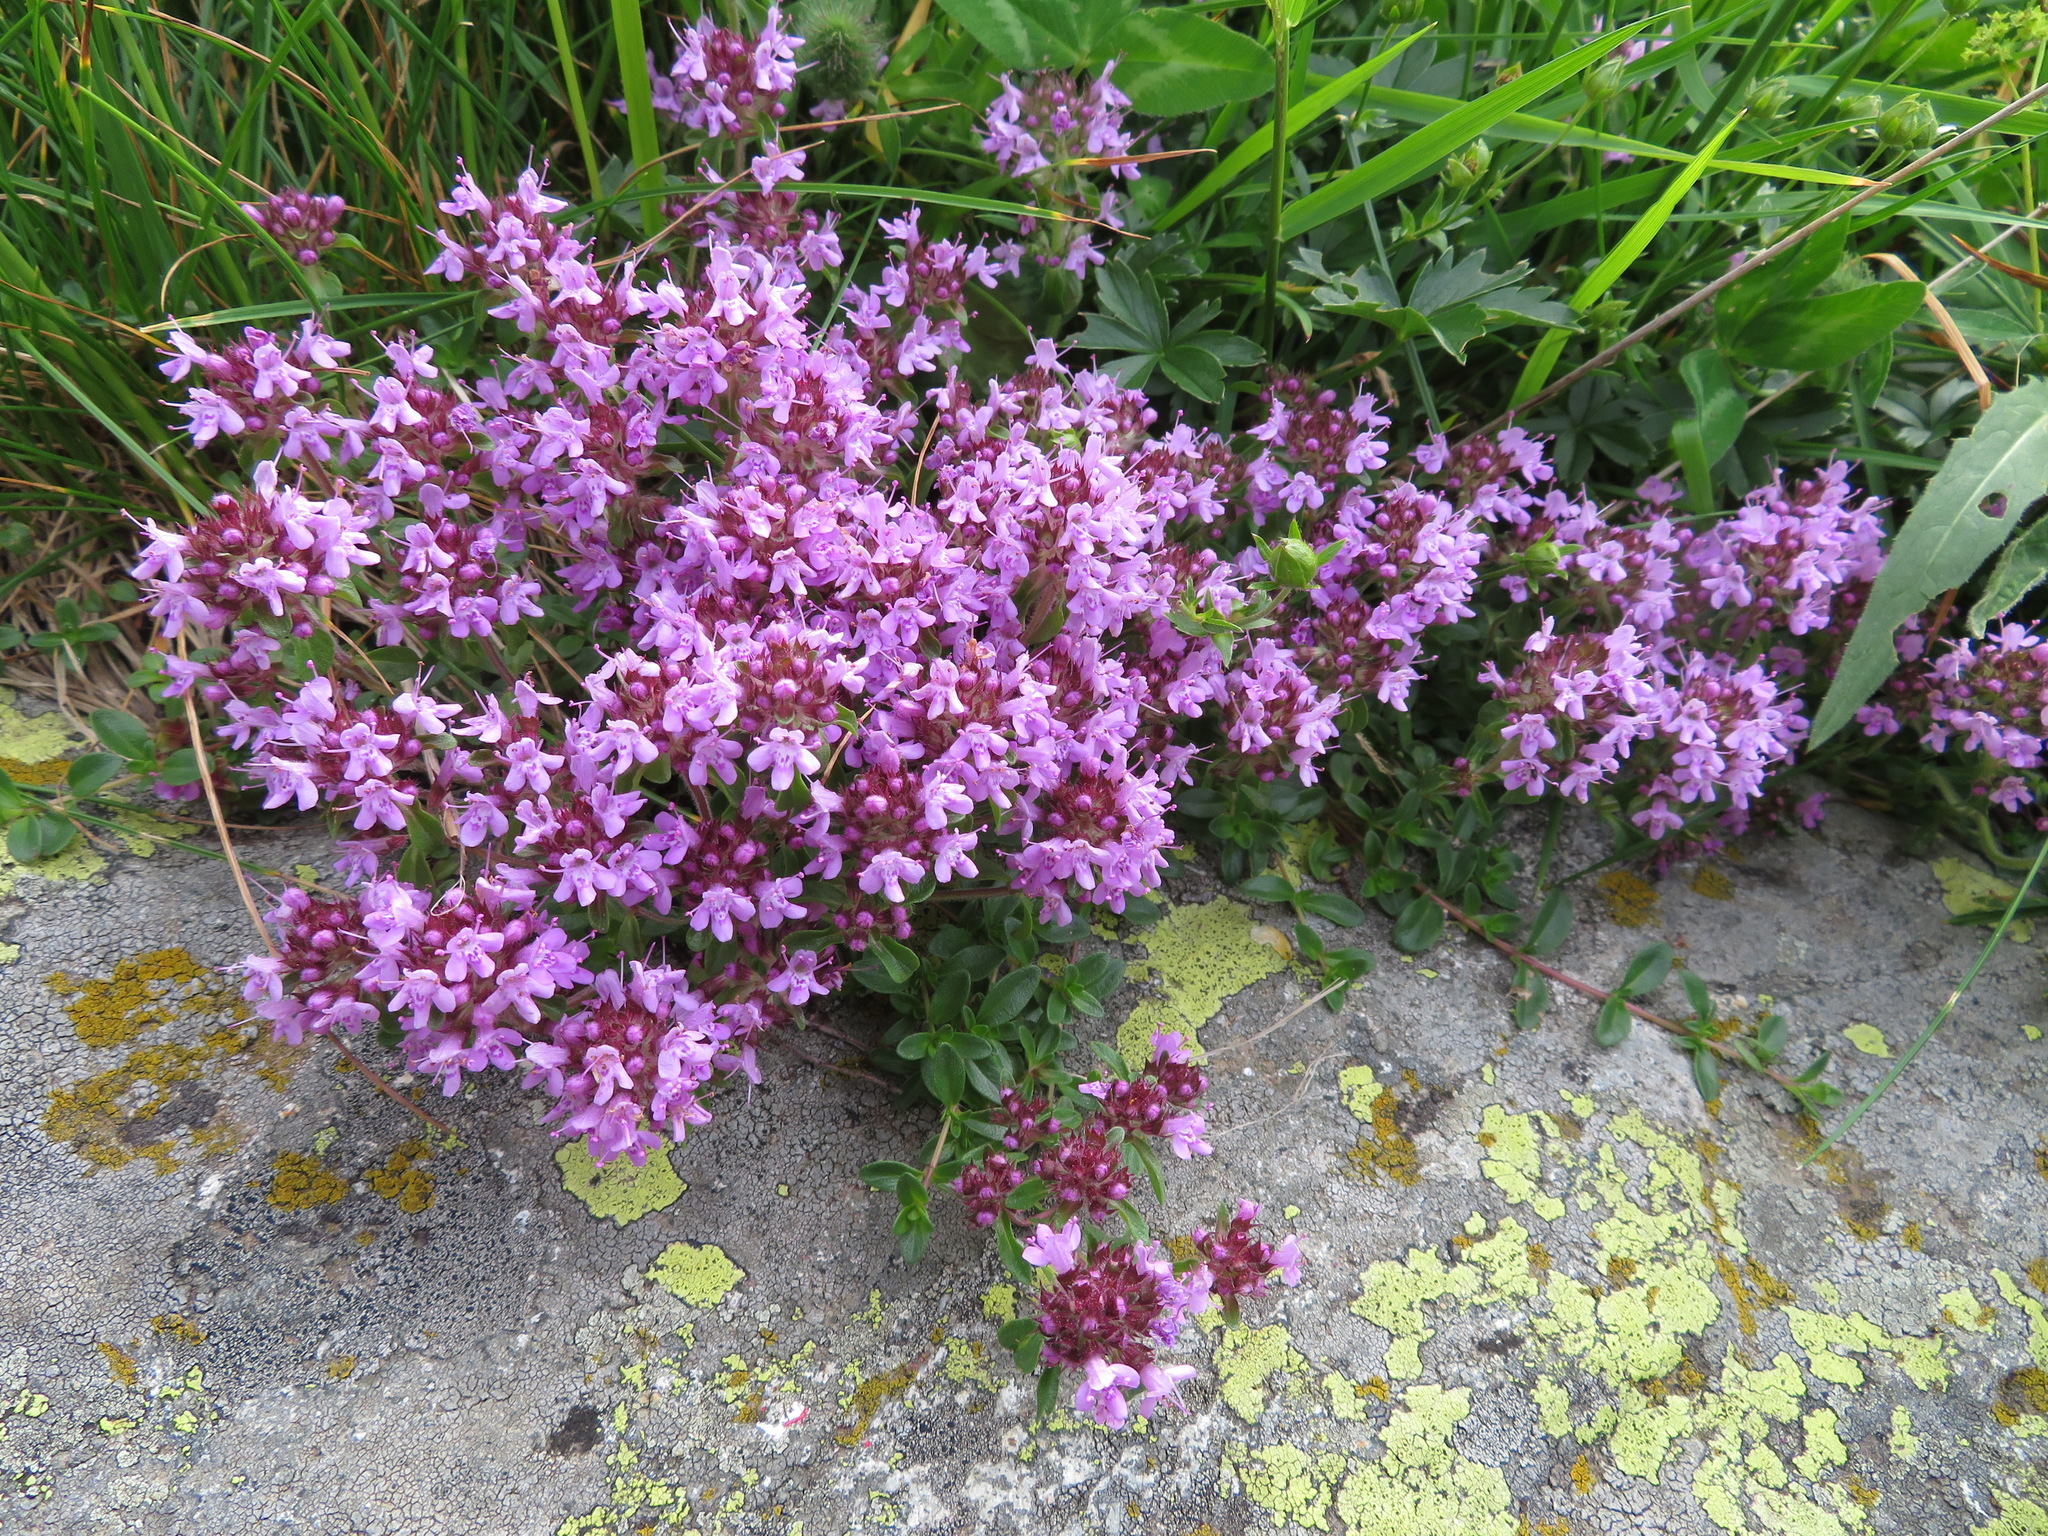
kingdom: Plantae
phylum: Tracheophyta
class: Magnoliopsida
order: Lamiales
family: Lamiaceae
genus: Thymus
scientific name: Thymus praecox
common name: Wild thyme
